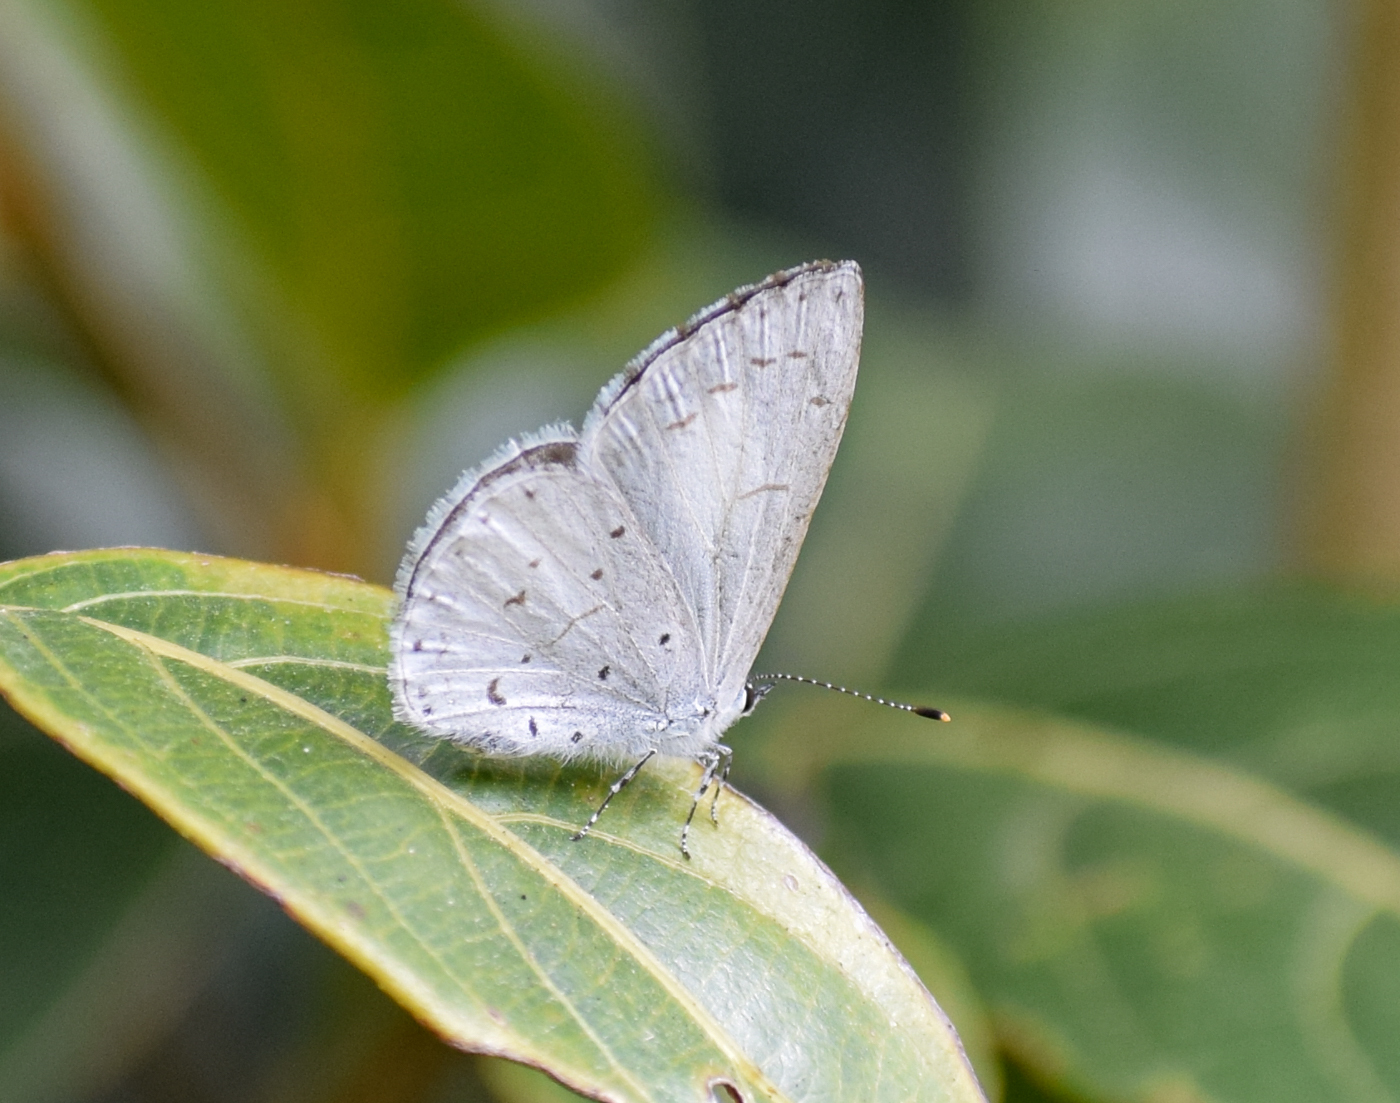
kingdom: Animalia
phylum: Arthropoda
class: Insecta
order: Lepidoptera
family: Lycaenidae
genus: Celastrina
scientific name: Celastrina lavendularis
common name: Plain hedge blue
